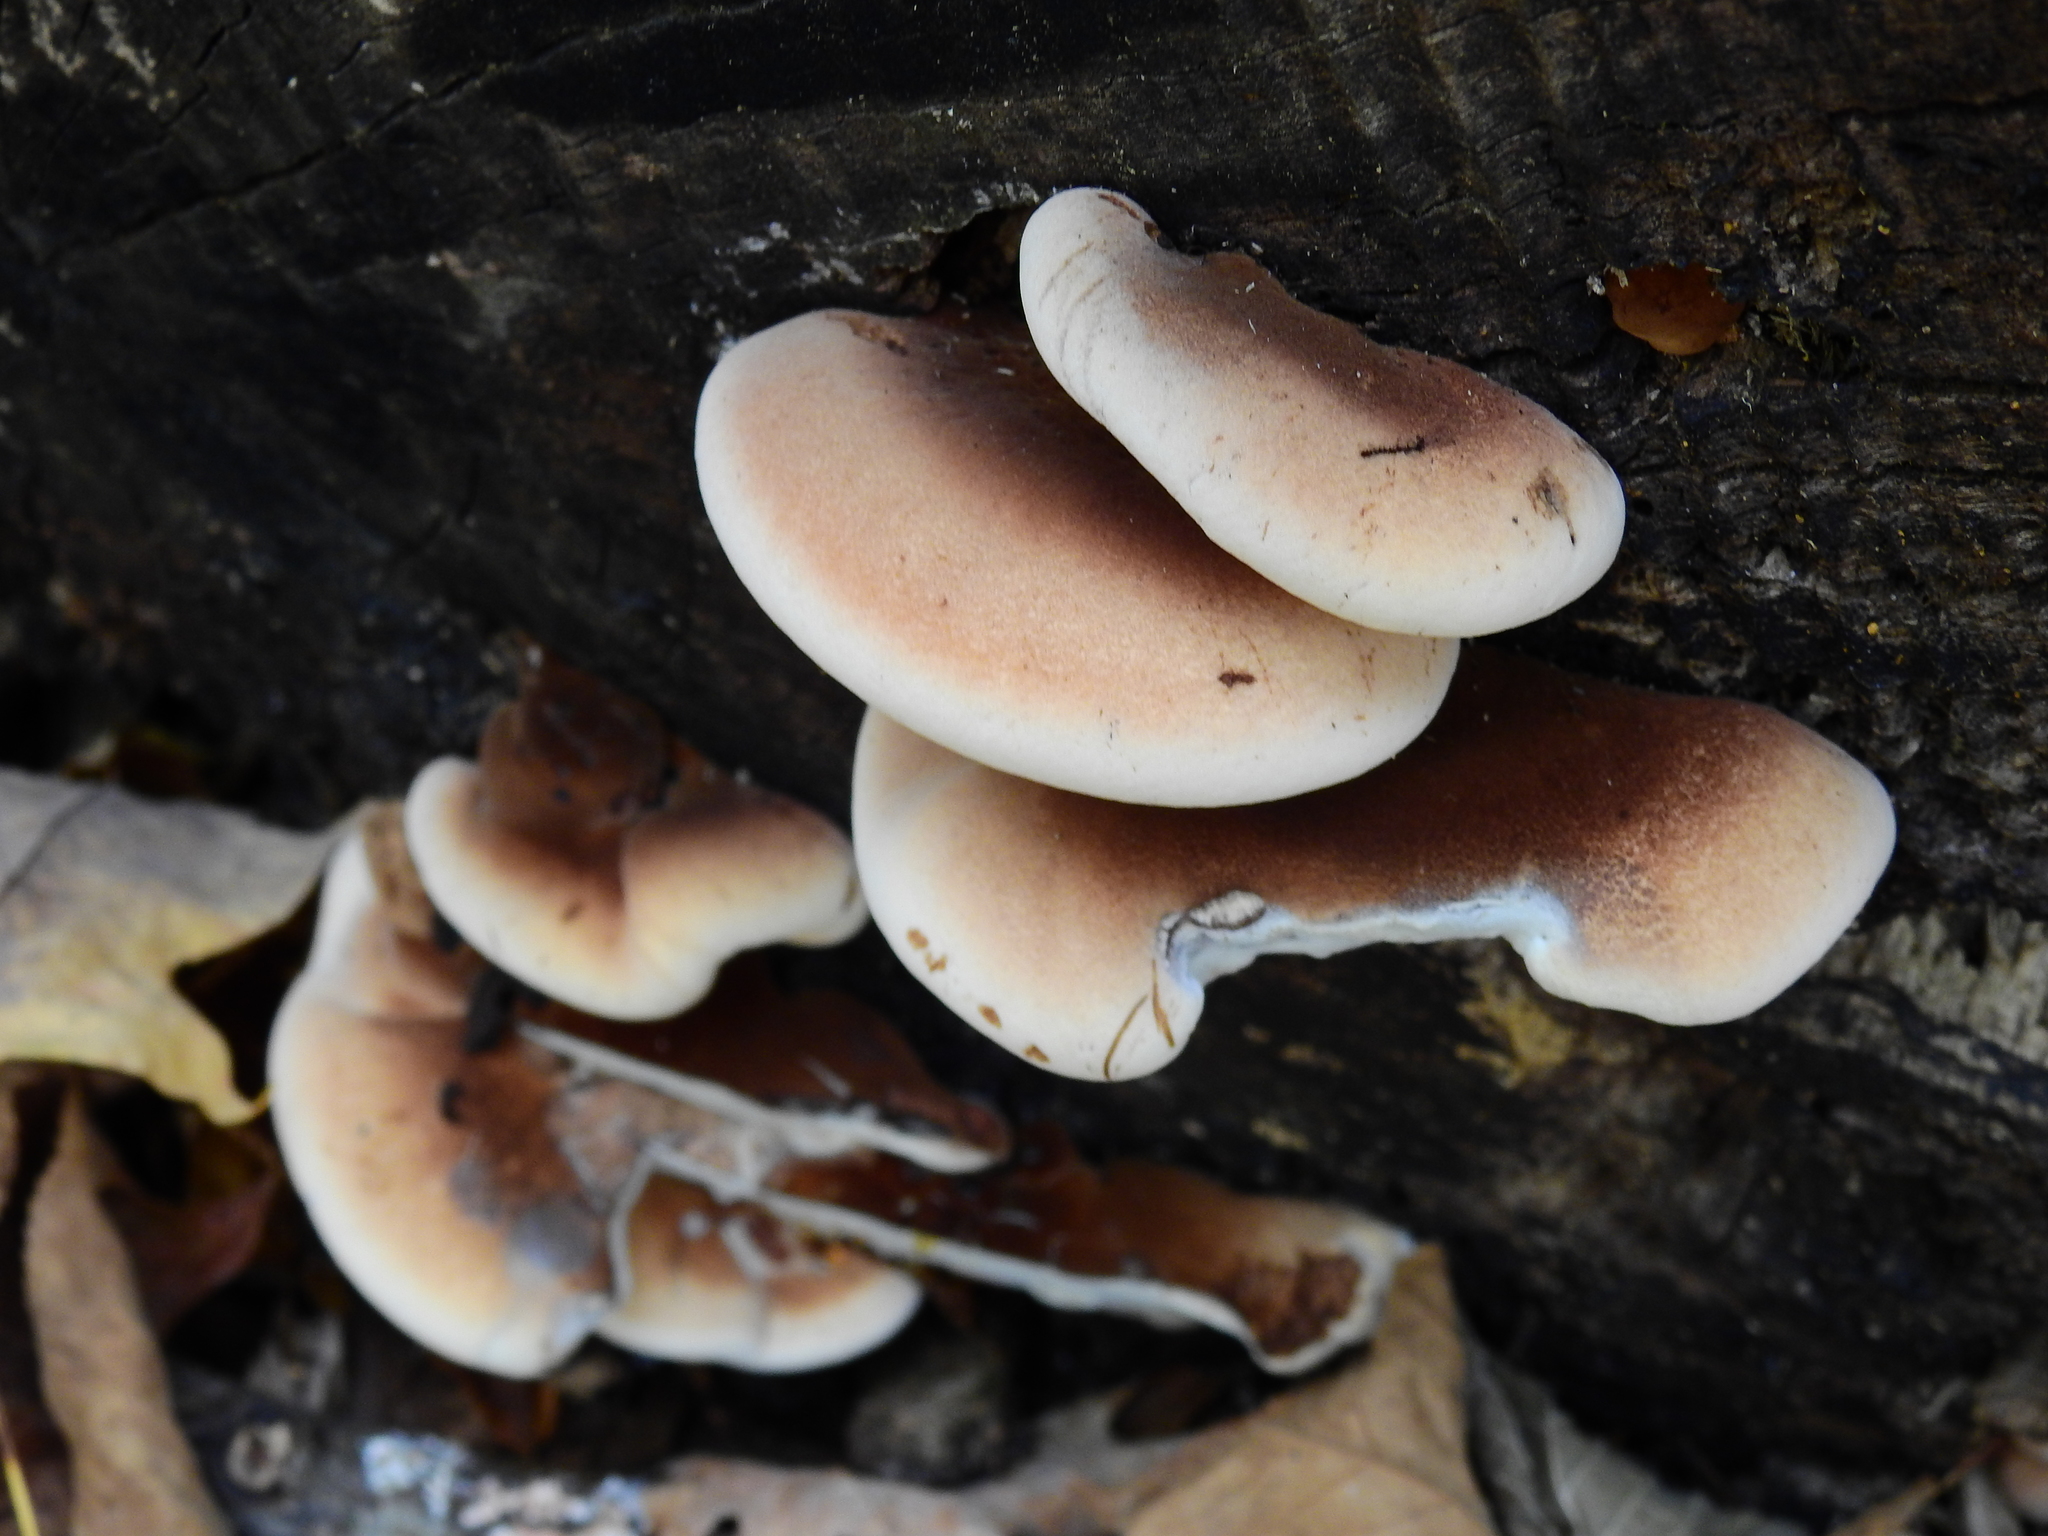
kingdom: Fungi
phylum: Basidiomycota
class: Agaricomycetes
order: Polyporales
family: Ischnodermataceae
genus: Ischnoderma
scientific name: Ischnoderma resinosum
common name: Resinous polypore
